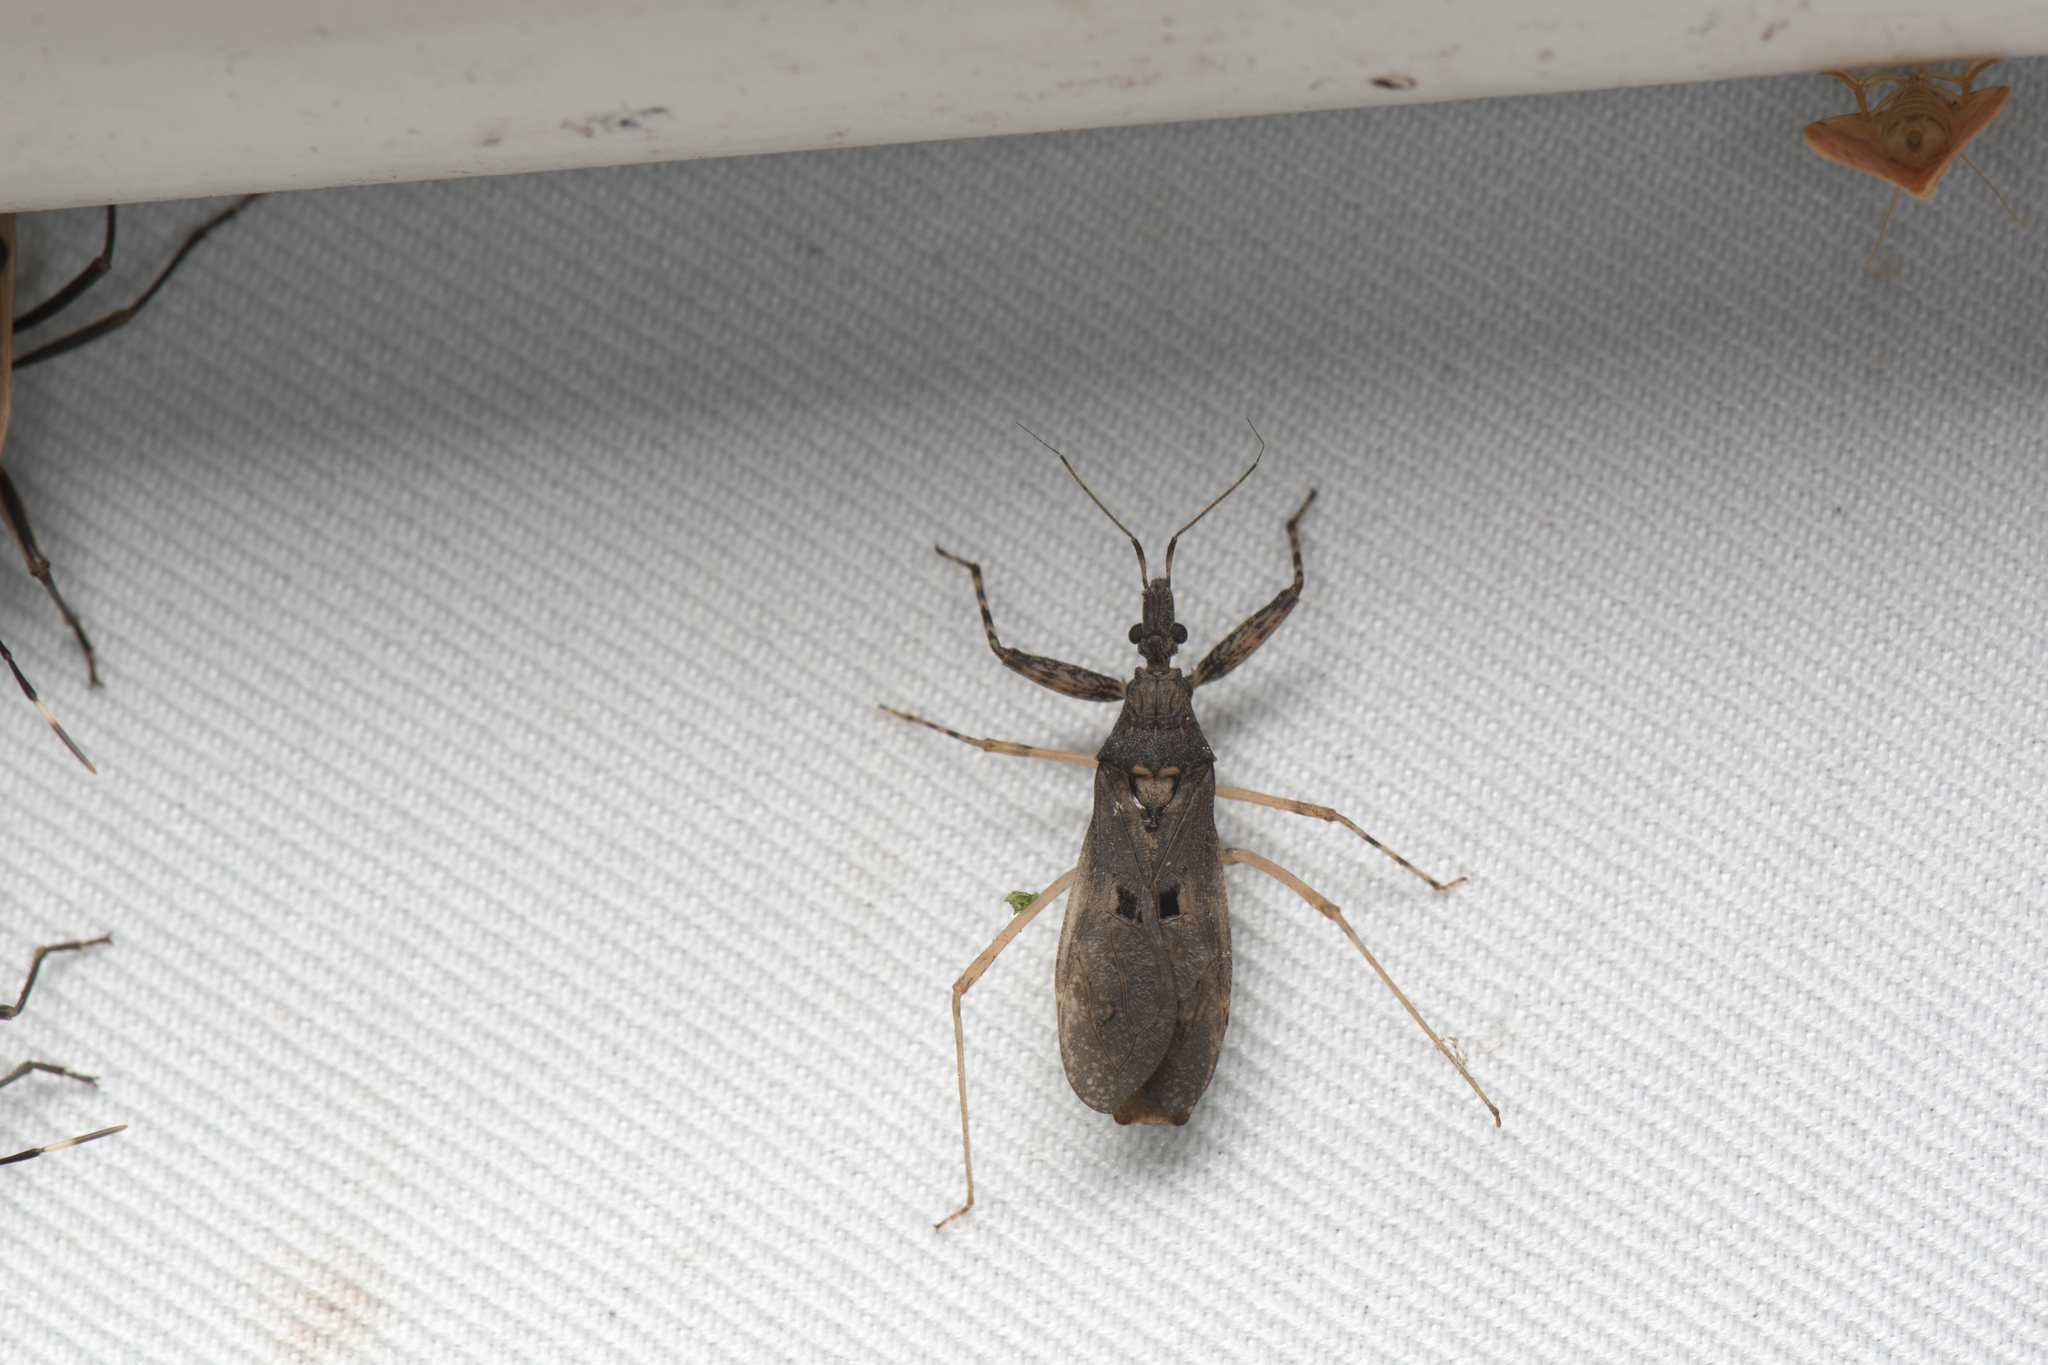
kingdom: Animalia
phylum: Arthropoda
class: Insecta
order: Hemiptera
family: Reduviidae
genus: Oncocephalus
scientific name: Oncocephalus breviscutum
